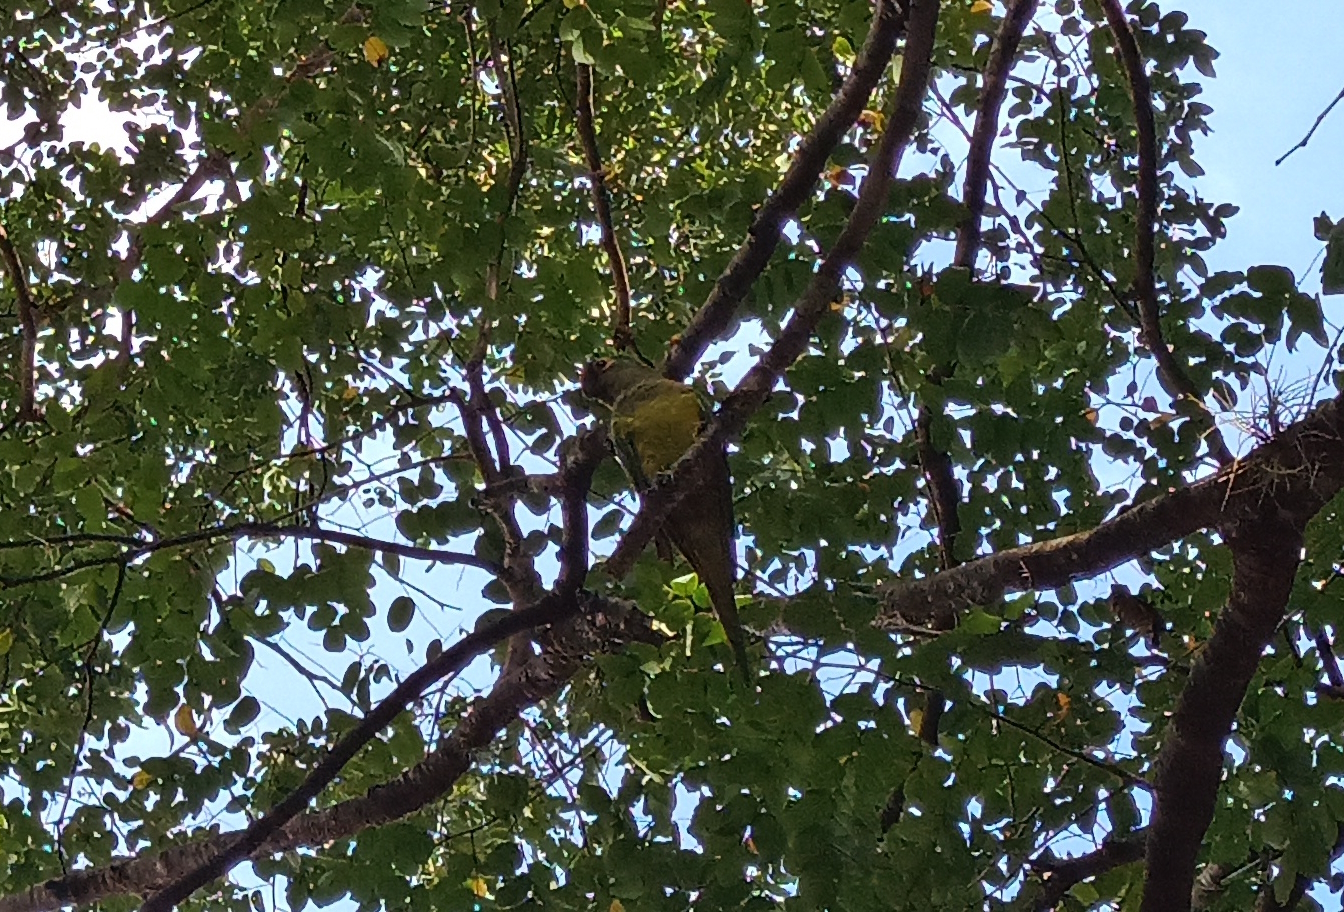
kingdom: Animalia
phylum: Chordata
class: Aves
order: Psittaciformes
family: Psittacidae
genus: Aratinga
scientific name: Aratinga aurea
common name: Peach-fronted parakeet
